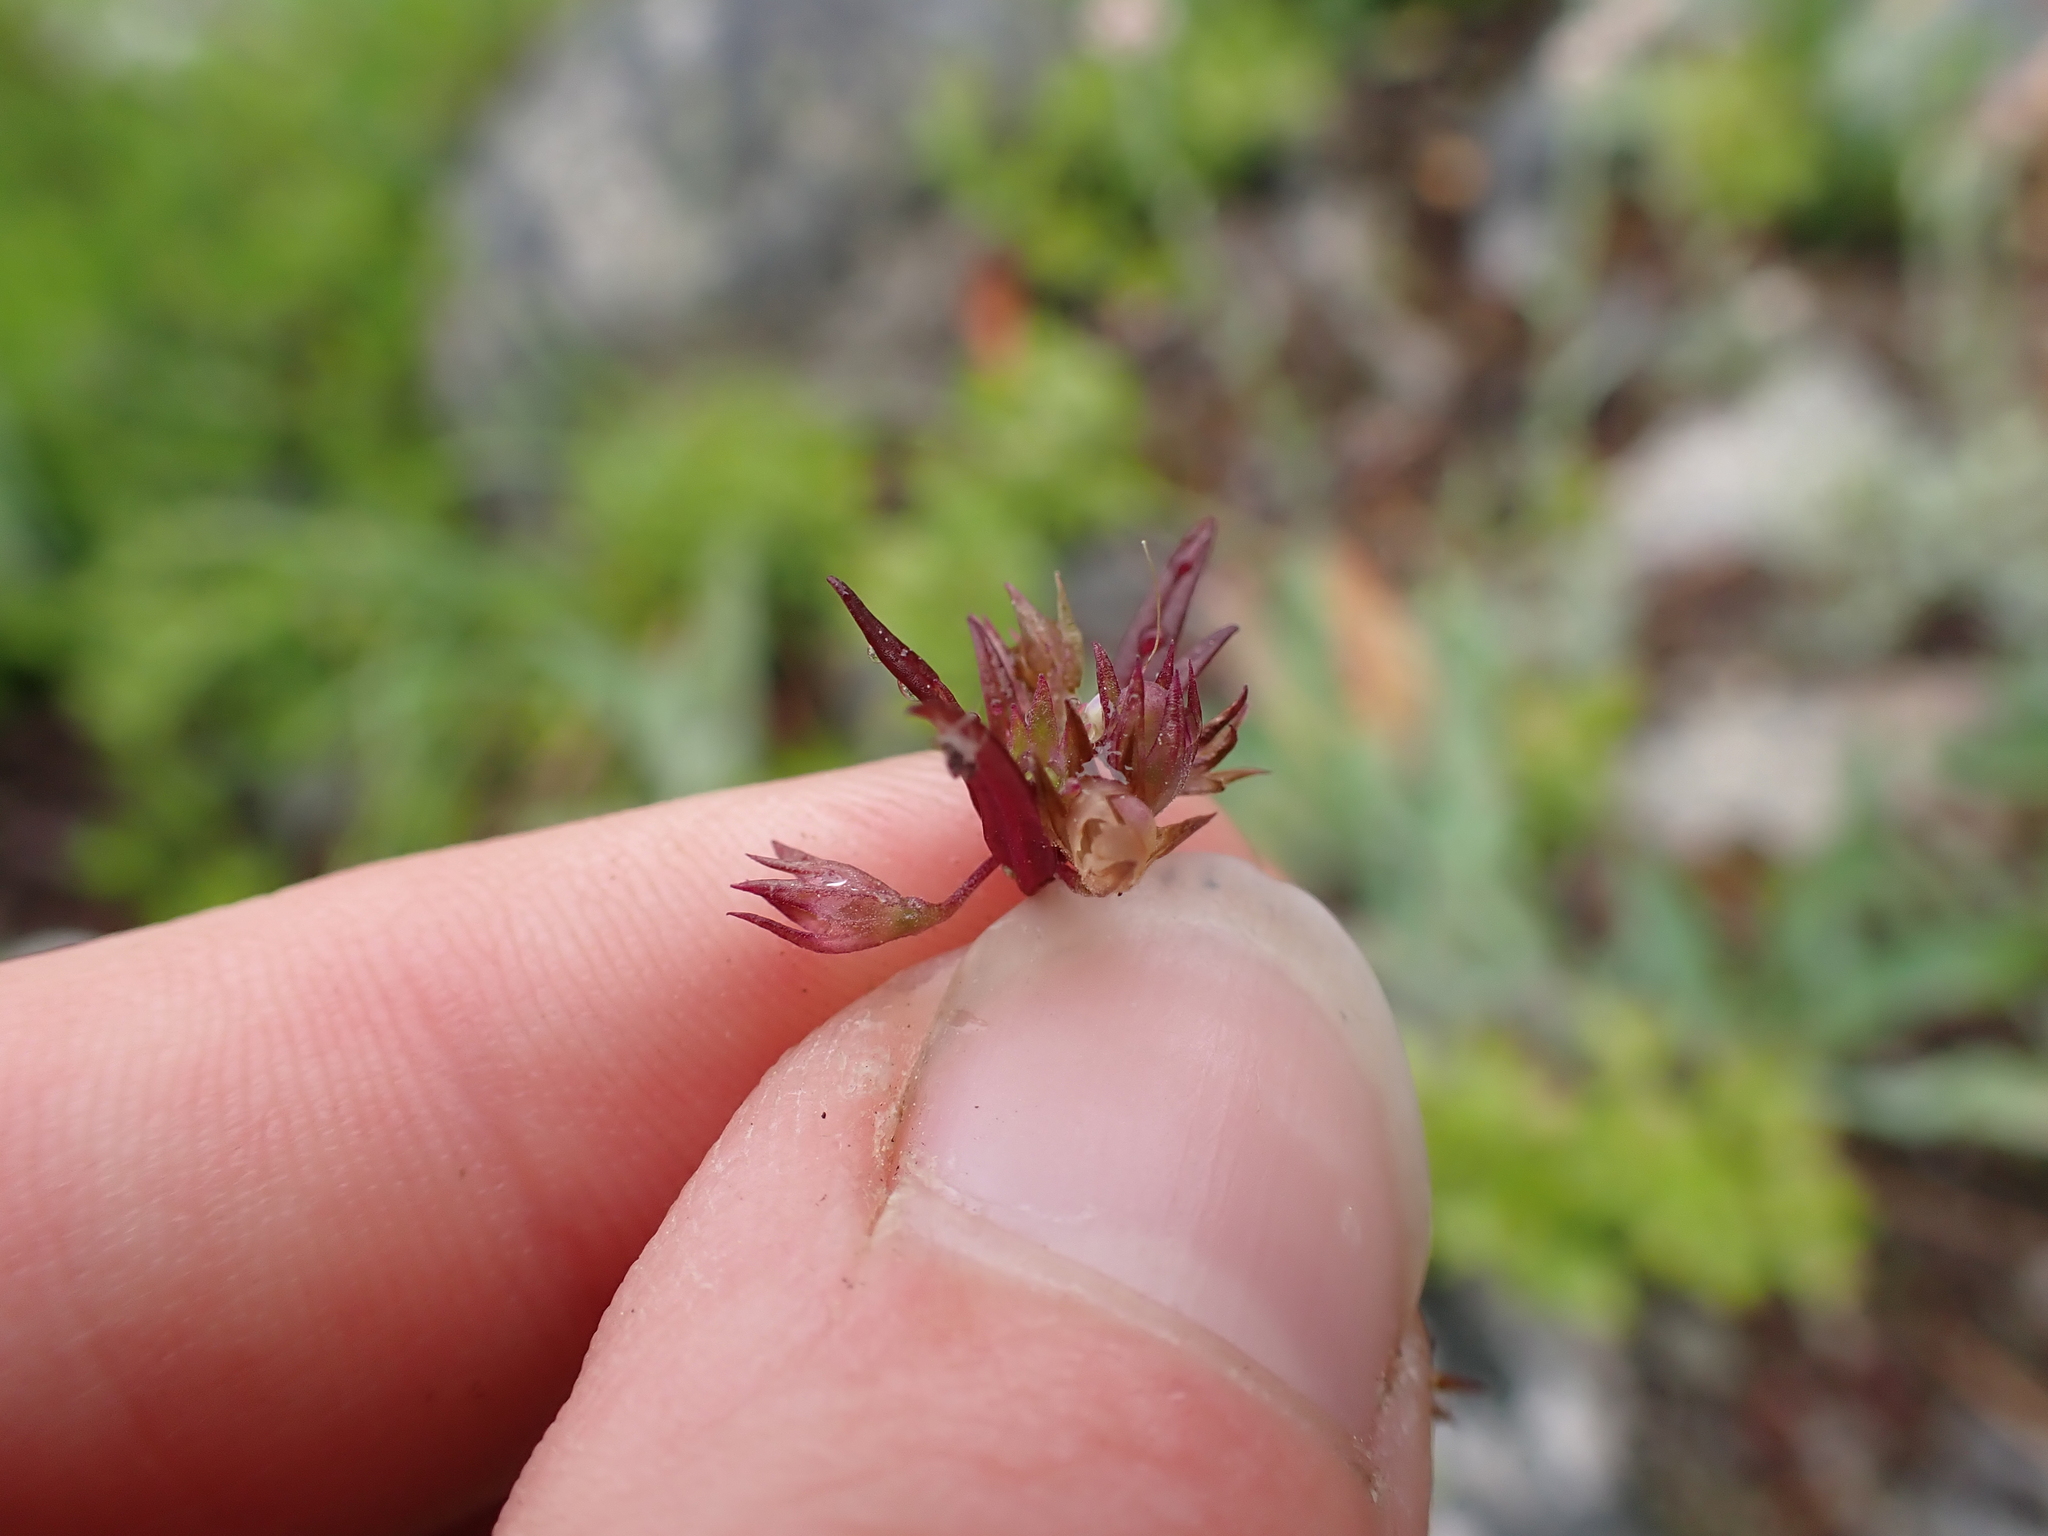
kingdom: Plantae
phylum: Tracheophyta
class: Magnoliopsida
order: Lamiales
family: Plantaginaceae
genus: Collinsia
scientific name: Collinsia parviflora
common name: Blue-lips
